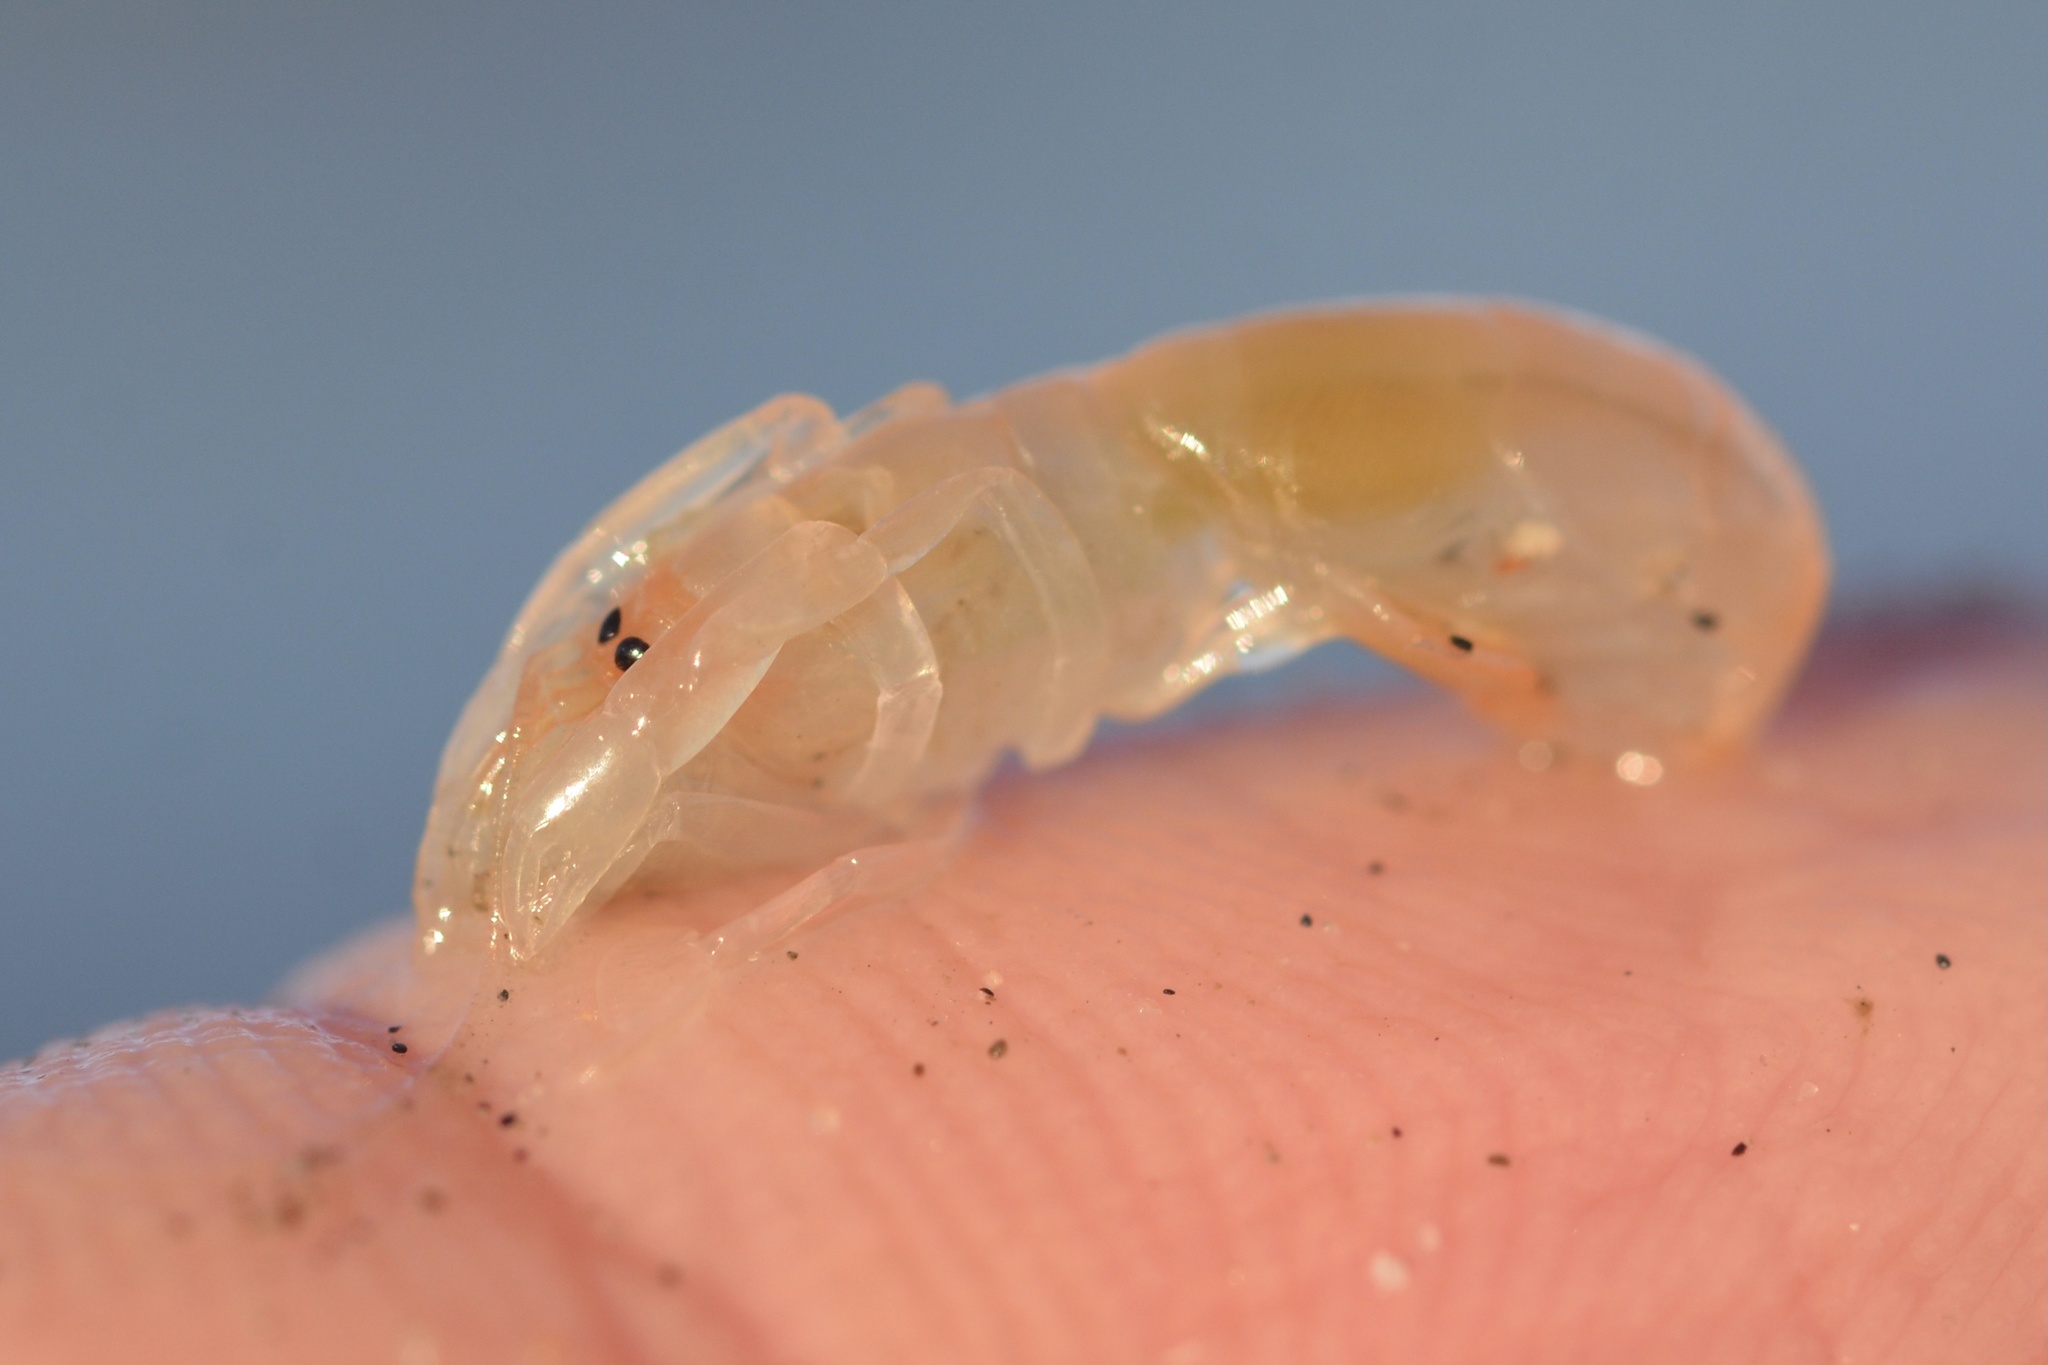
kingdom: Animalia
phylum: Arthropoda
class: Malacostraca
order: Decapoda
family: Callianassidae
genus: Neotrypaea
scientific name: Neotrypaea californiensis
